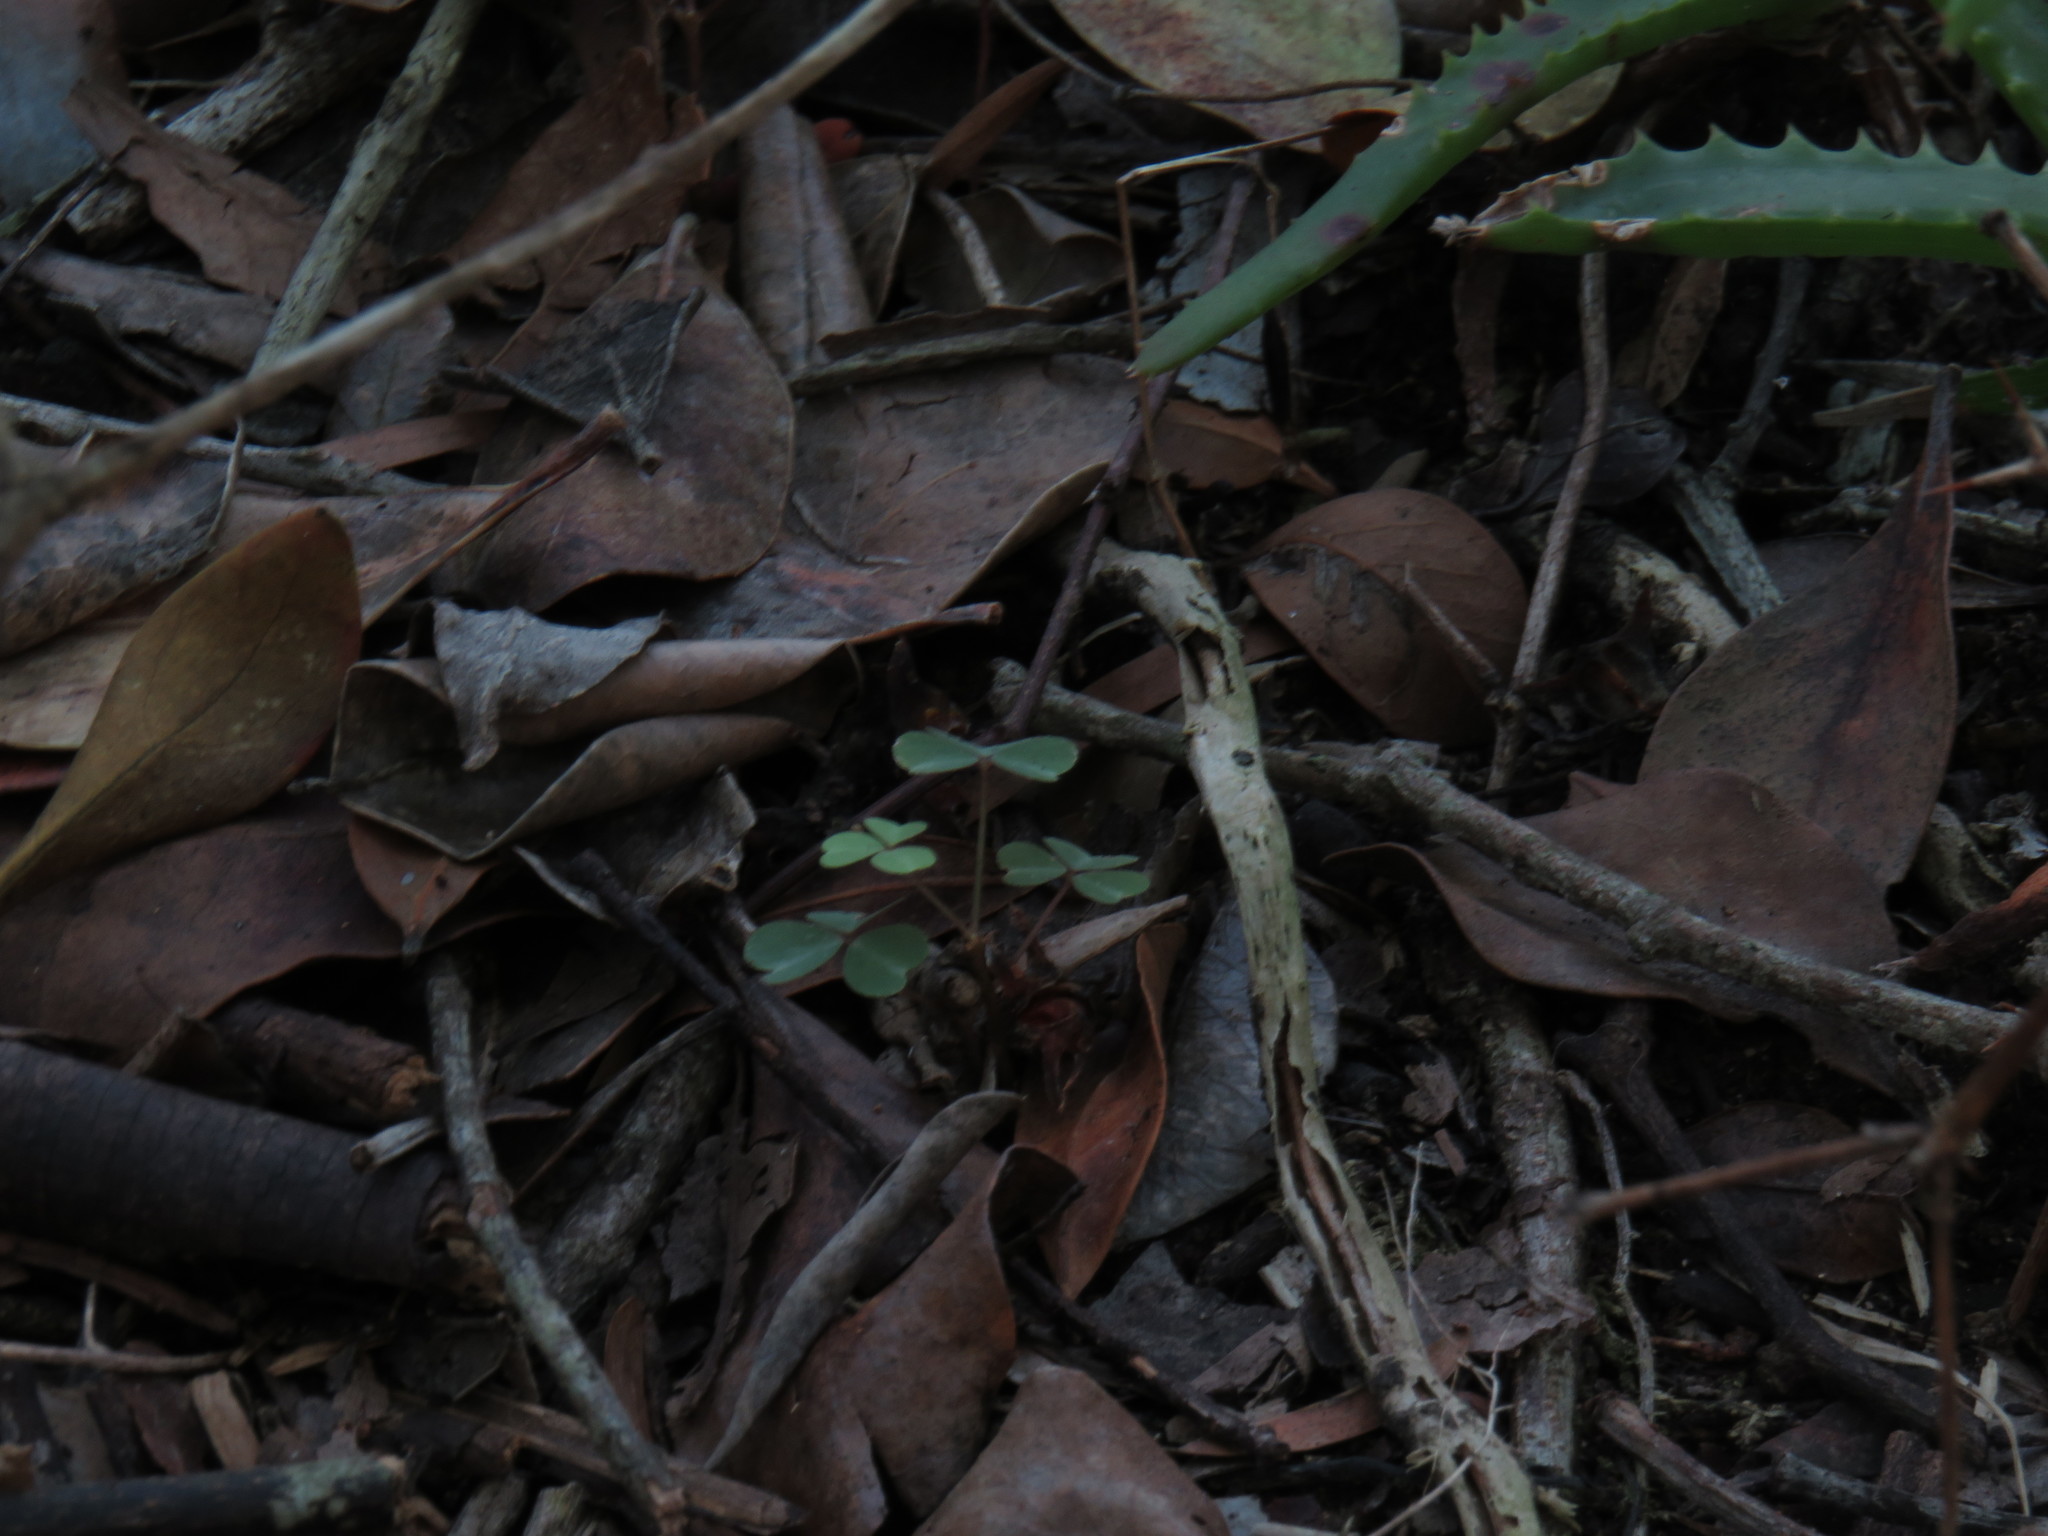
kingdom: Plantae
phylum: Tracheophyta
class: Magnoliopsida
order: Oxalidales
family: Oxalidaceae
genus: Oxalis
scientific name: Oxalis incarnata
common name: Pale pink-sorrel
